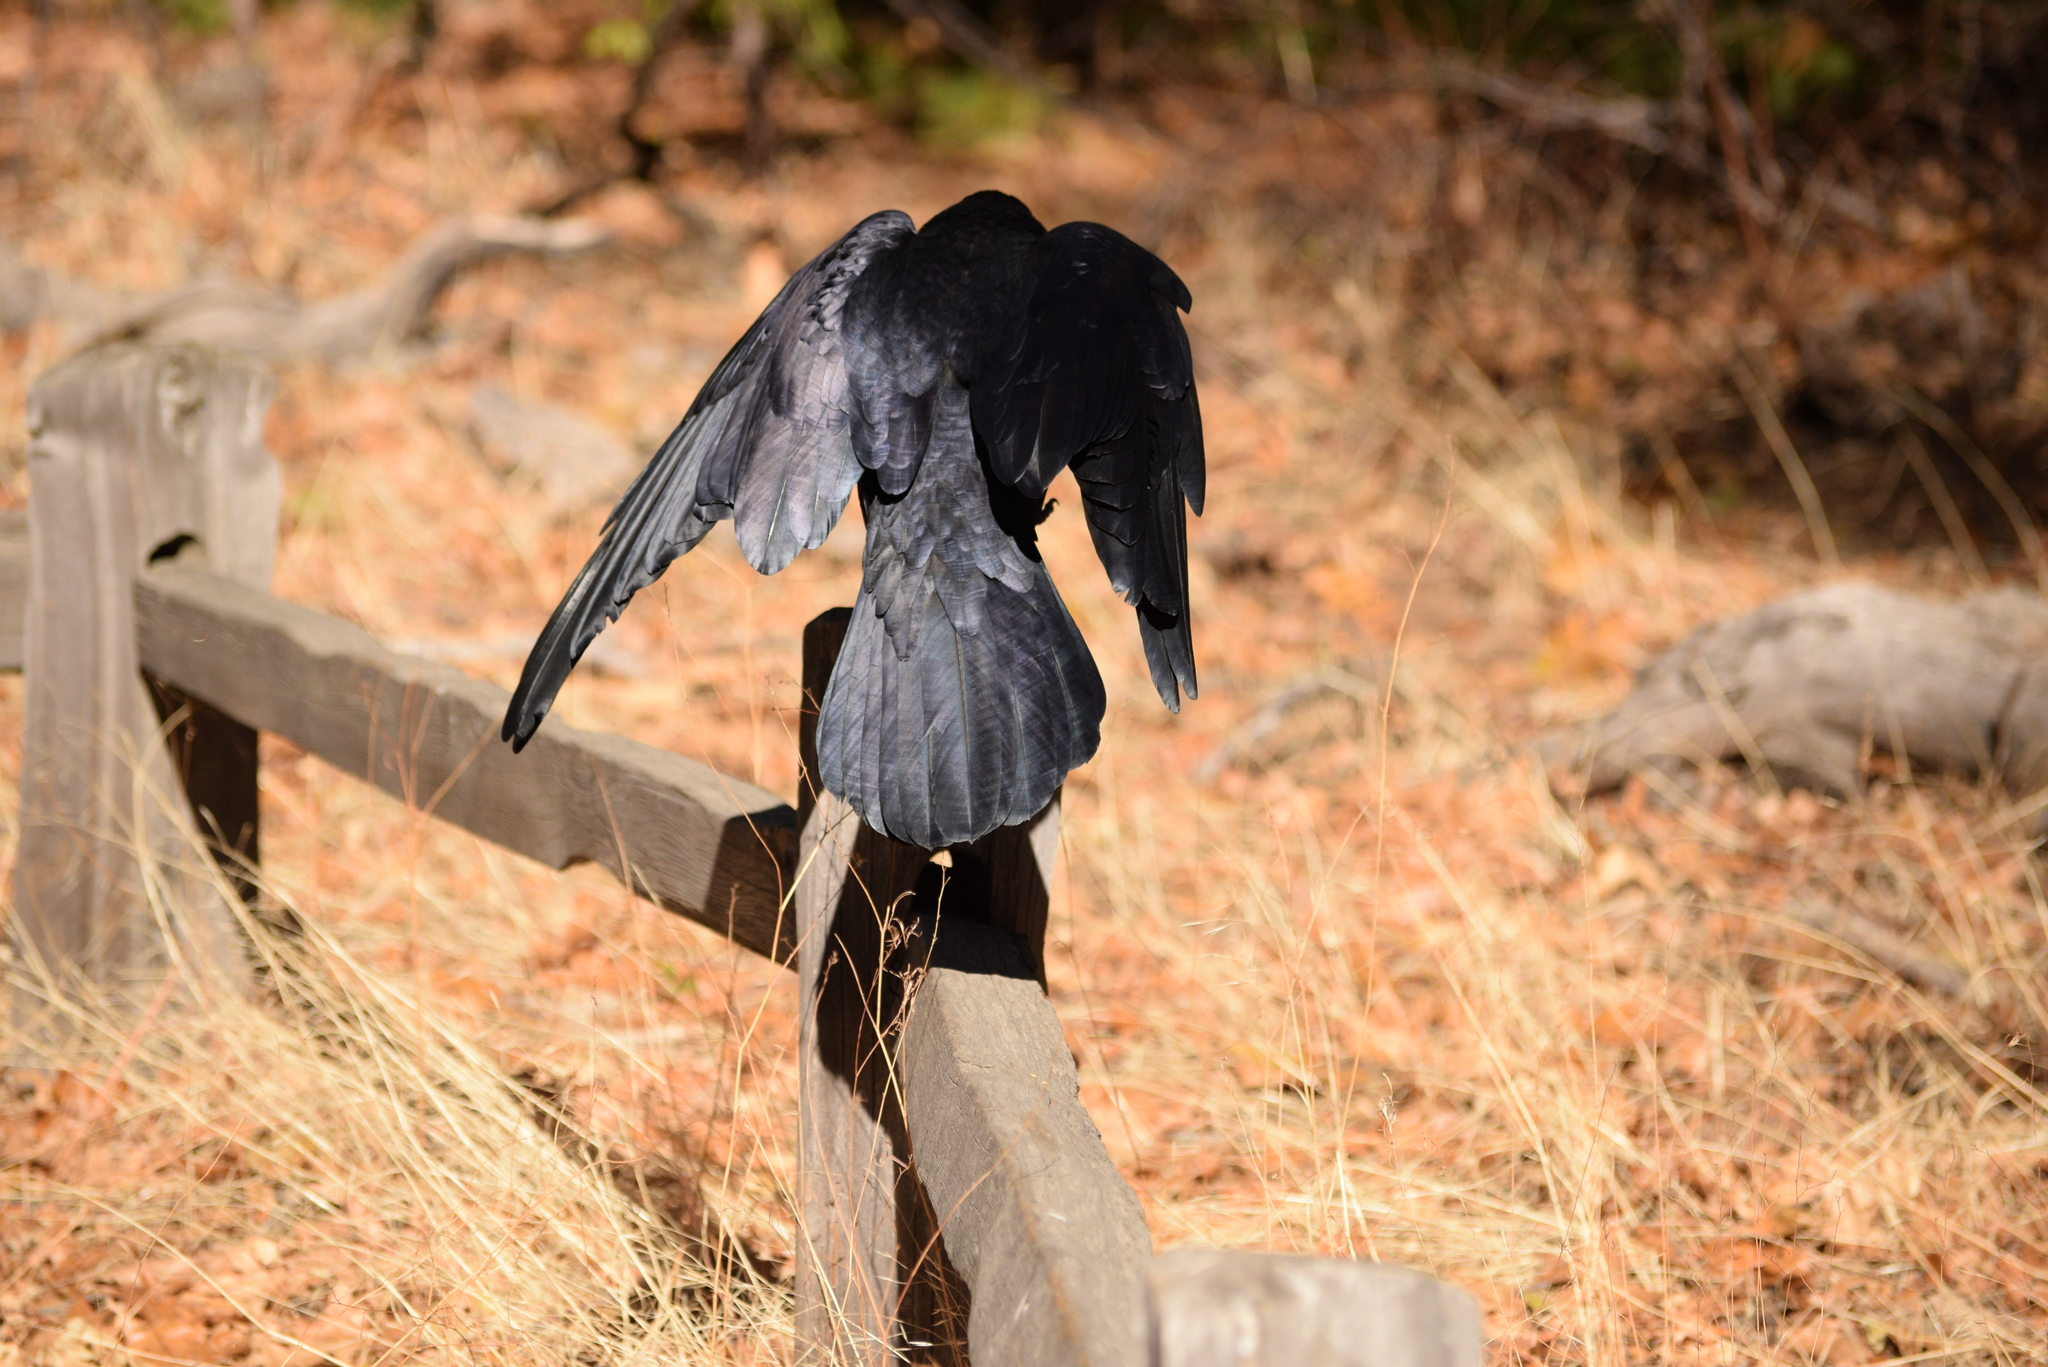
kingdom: Animalia
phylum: Chordata
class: Aves
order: Passeriformes
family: Corvidae
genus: Corvus
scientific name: Corvus corax
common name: Common raven
